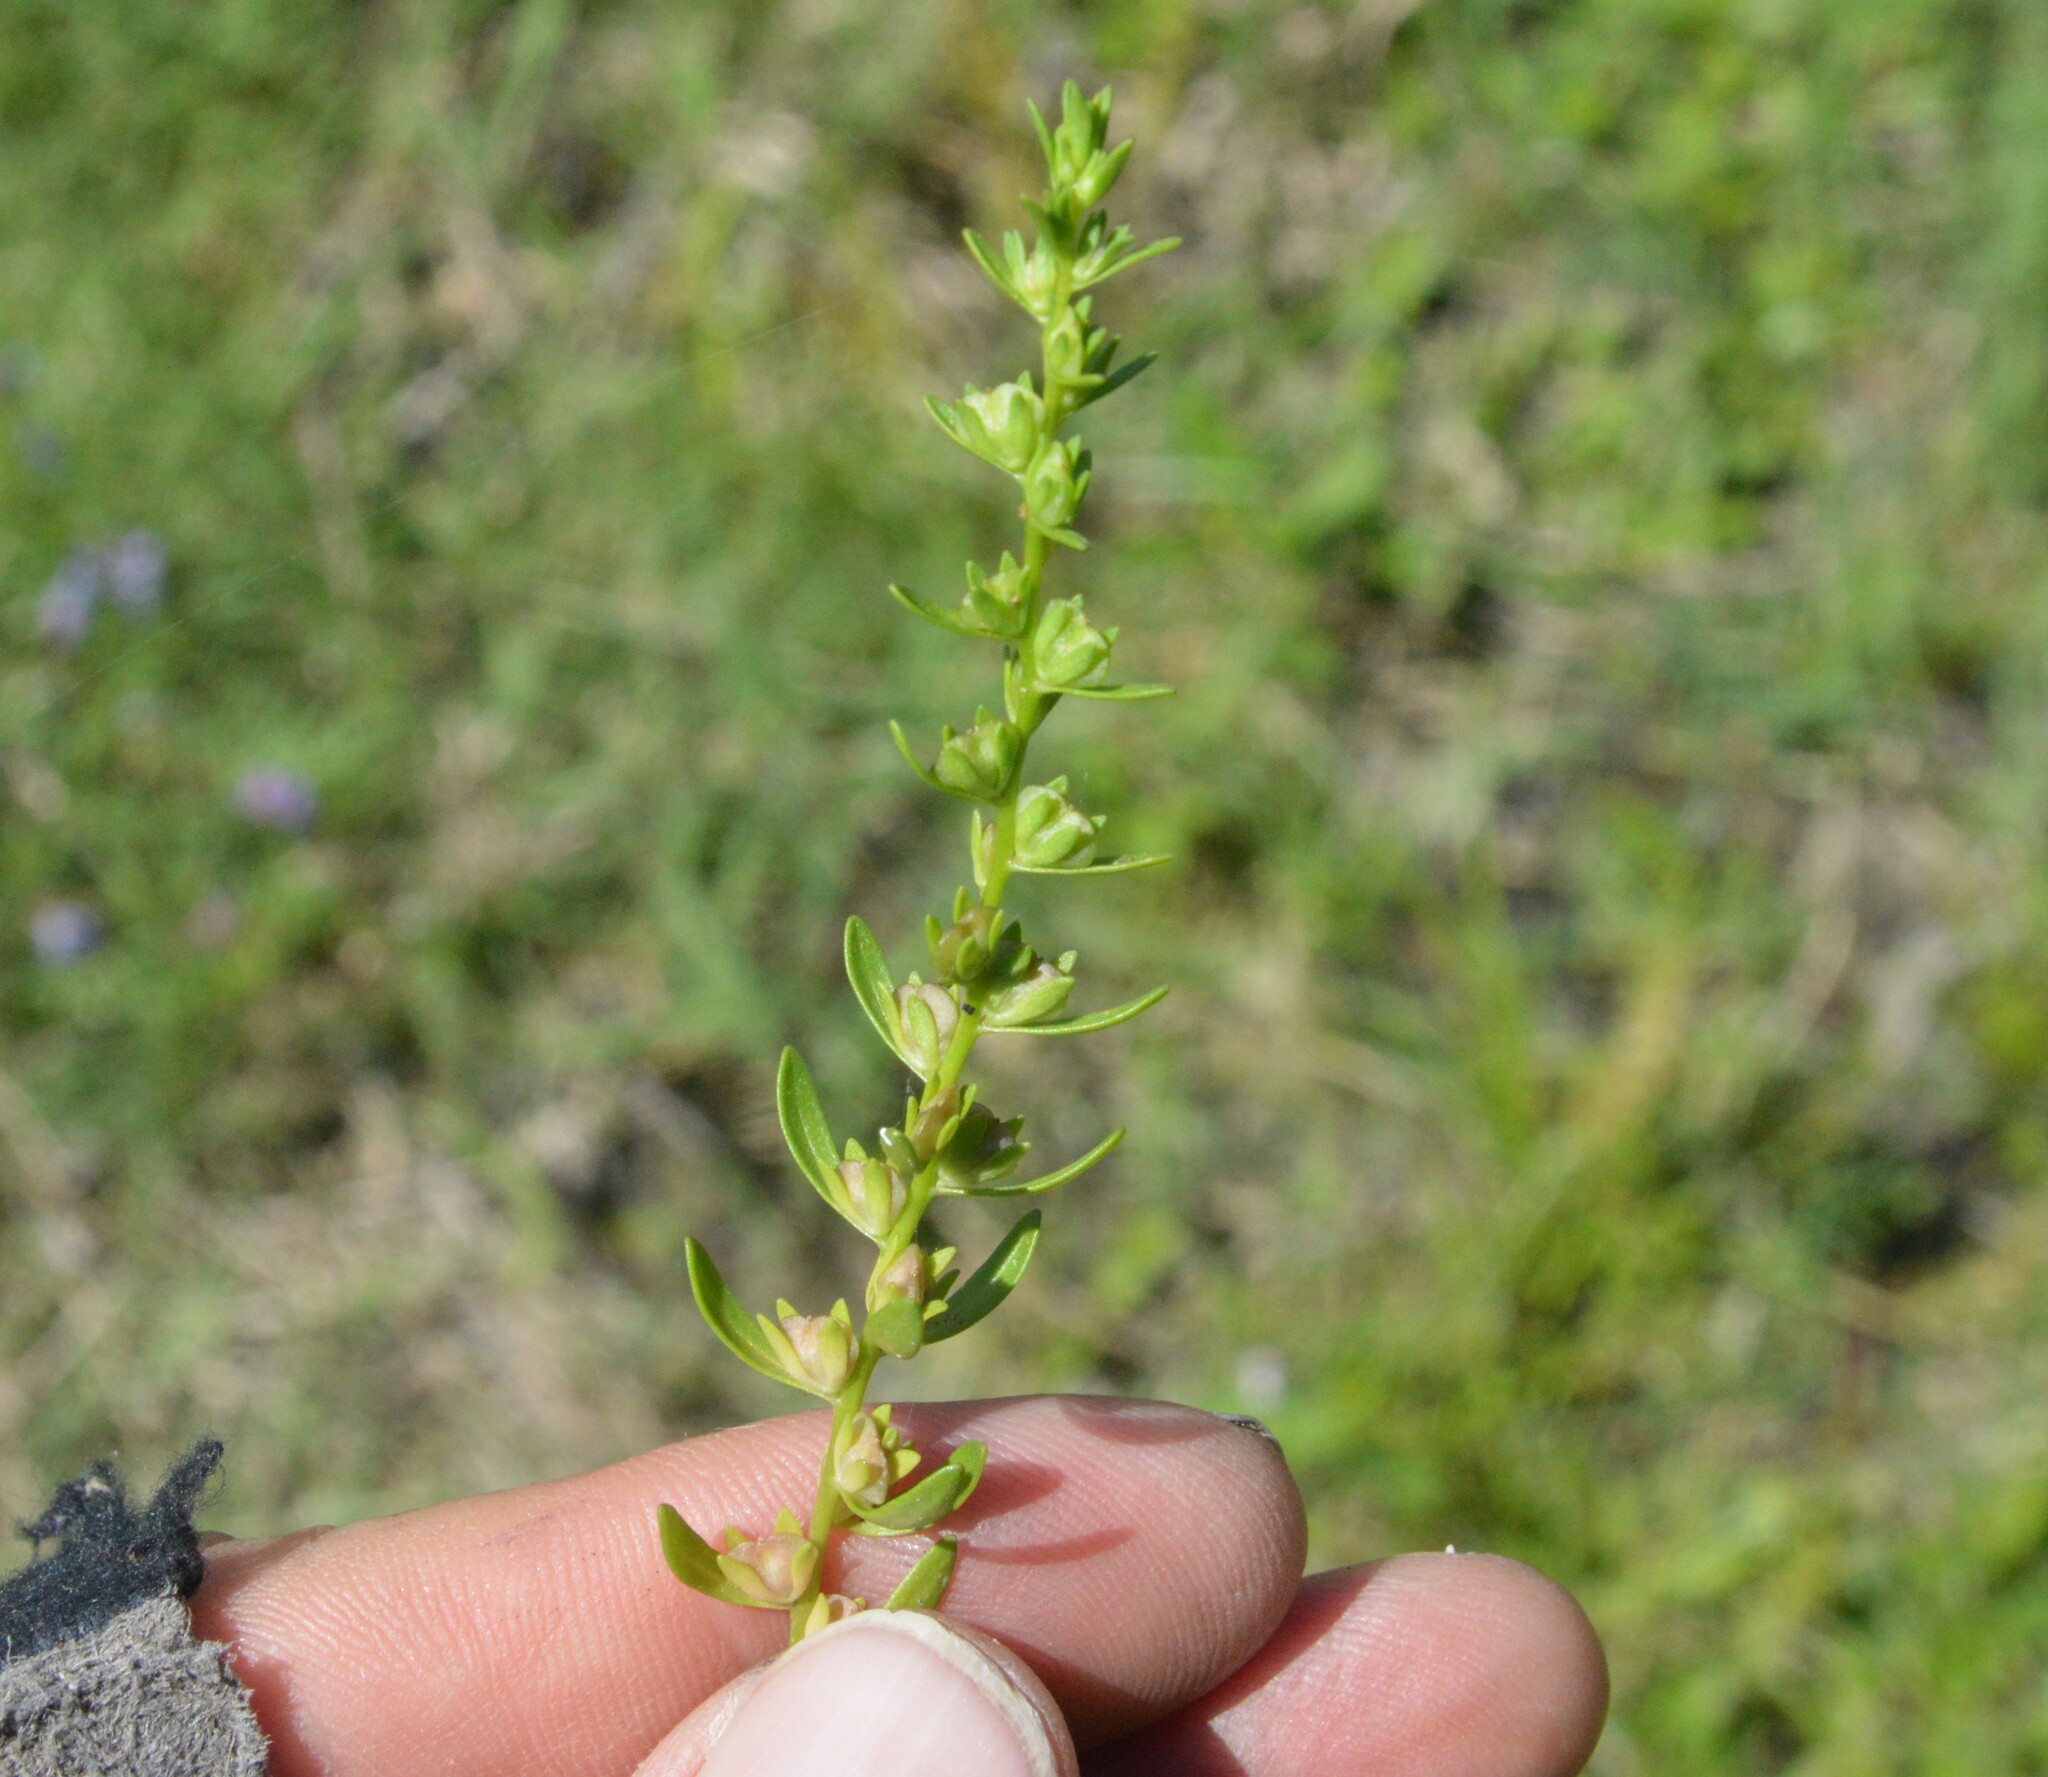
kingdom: Plantae
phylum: Tracheophyta
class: Magnoliopsida
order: Lamiales
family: Plantaginaceae
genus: Veronica
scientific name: Veronica peregrina
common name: Neckweed
